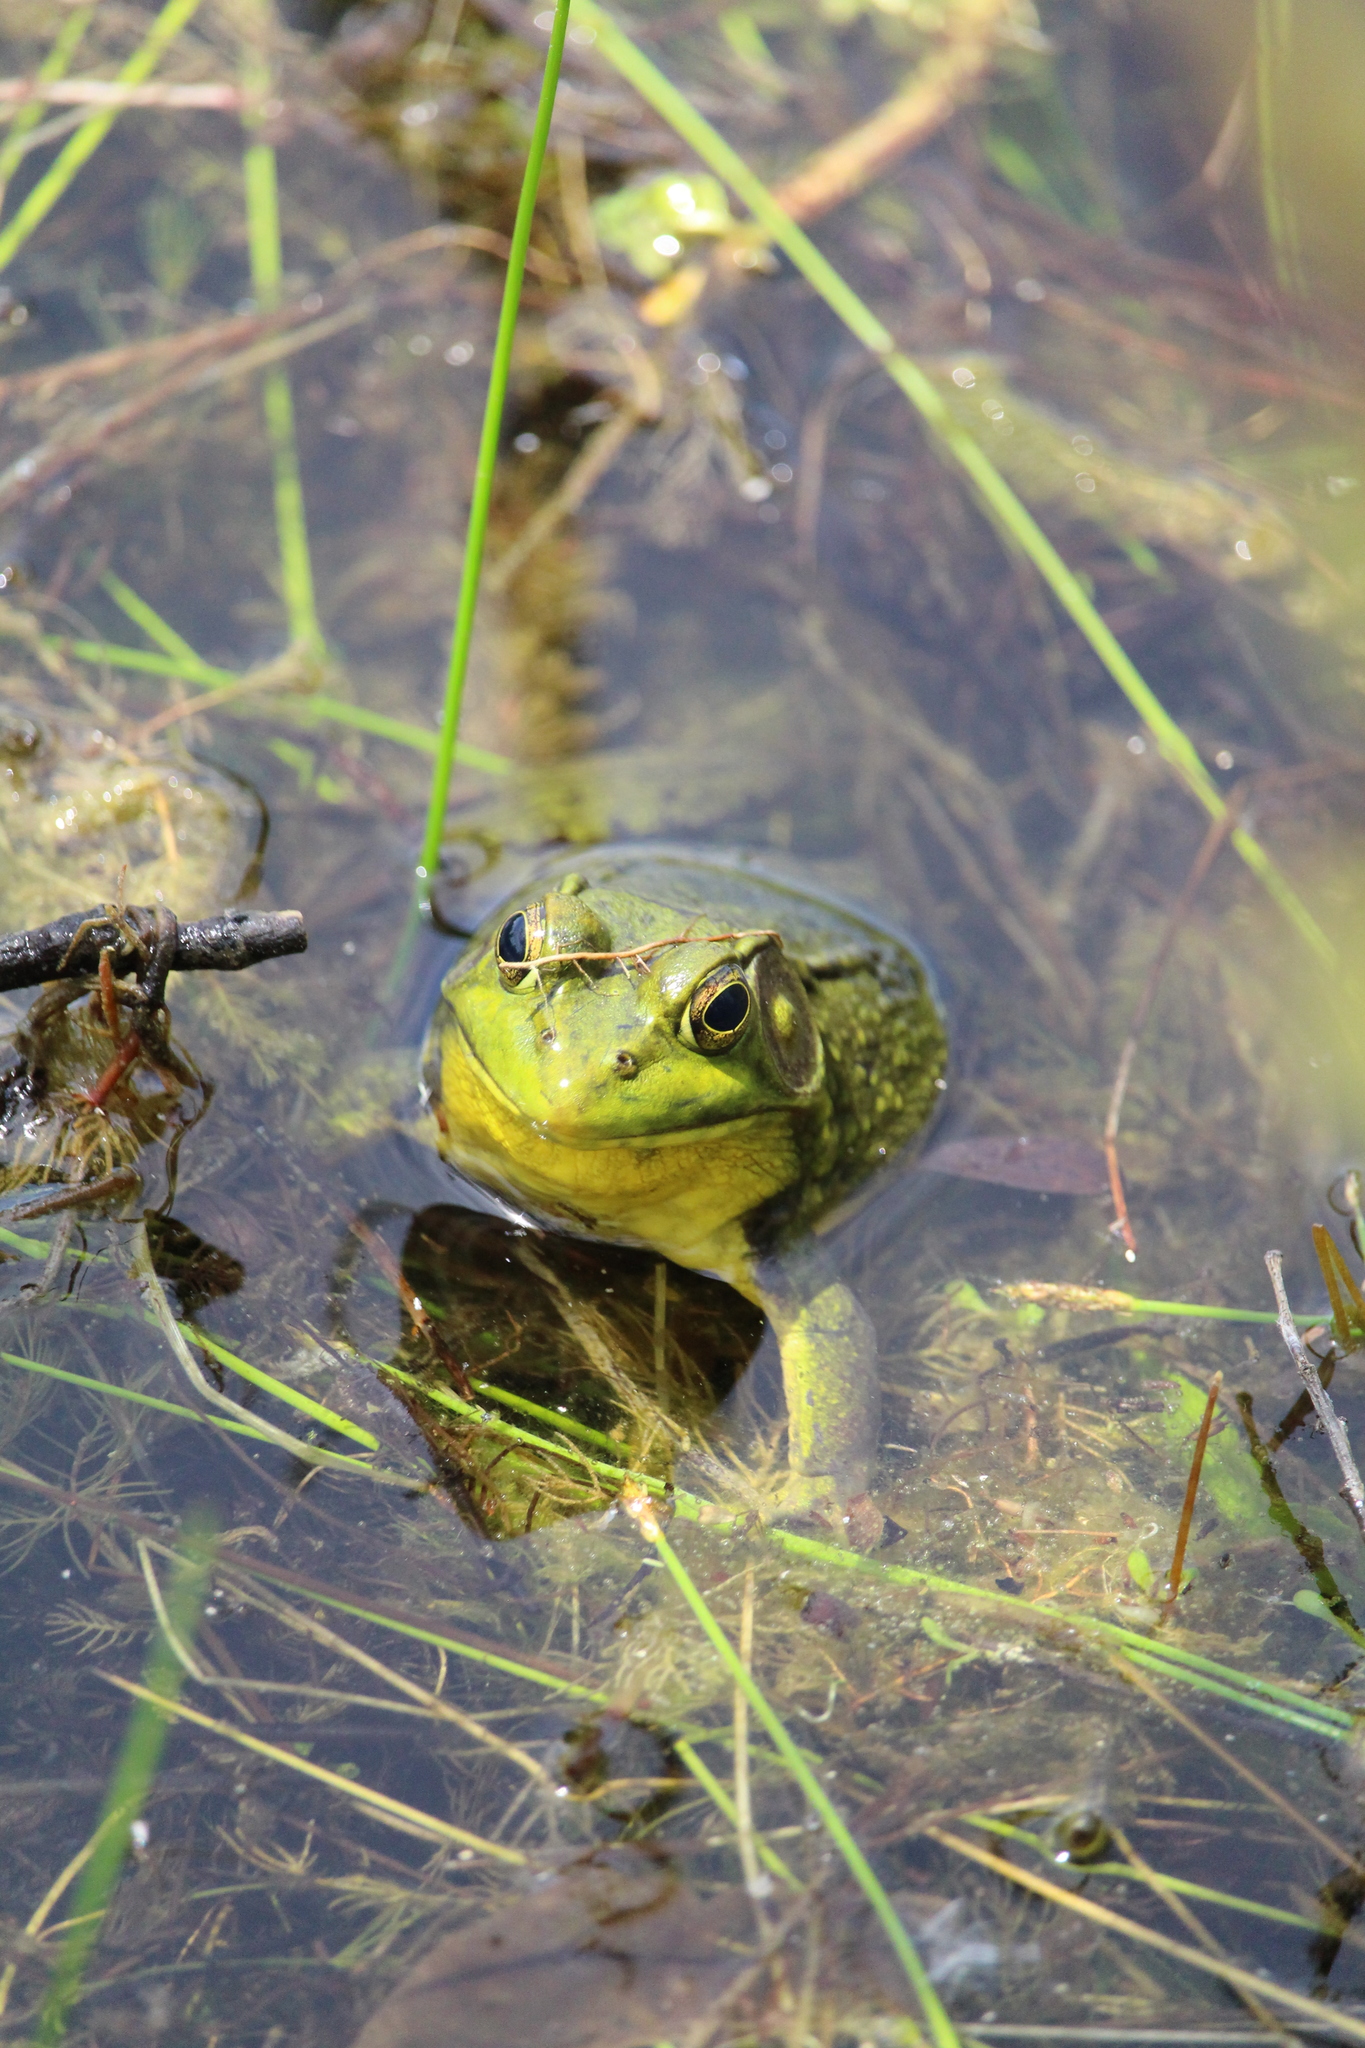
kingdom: Animalia
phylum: Chordata
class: Amphibia
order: Anura
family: Ranidae
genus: Lithobates
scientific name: Lithobates clamitans
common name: Green frog
